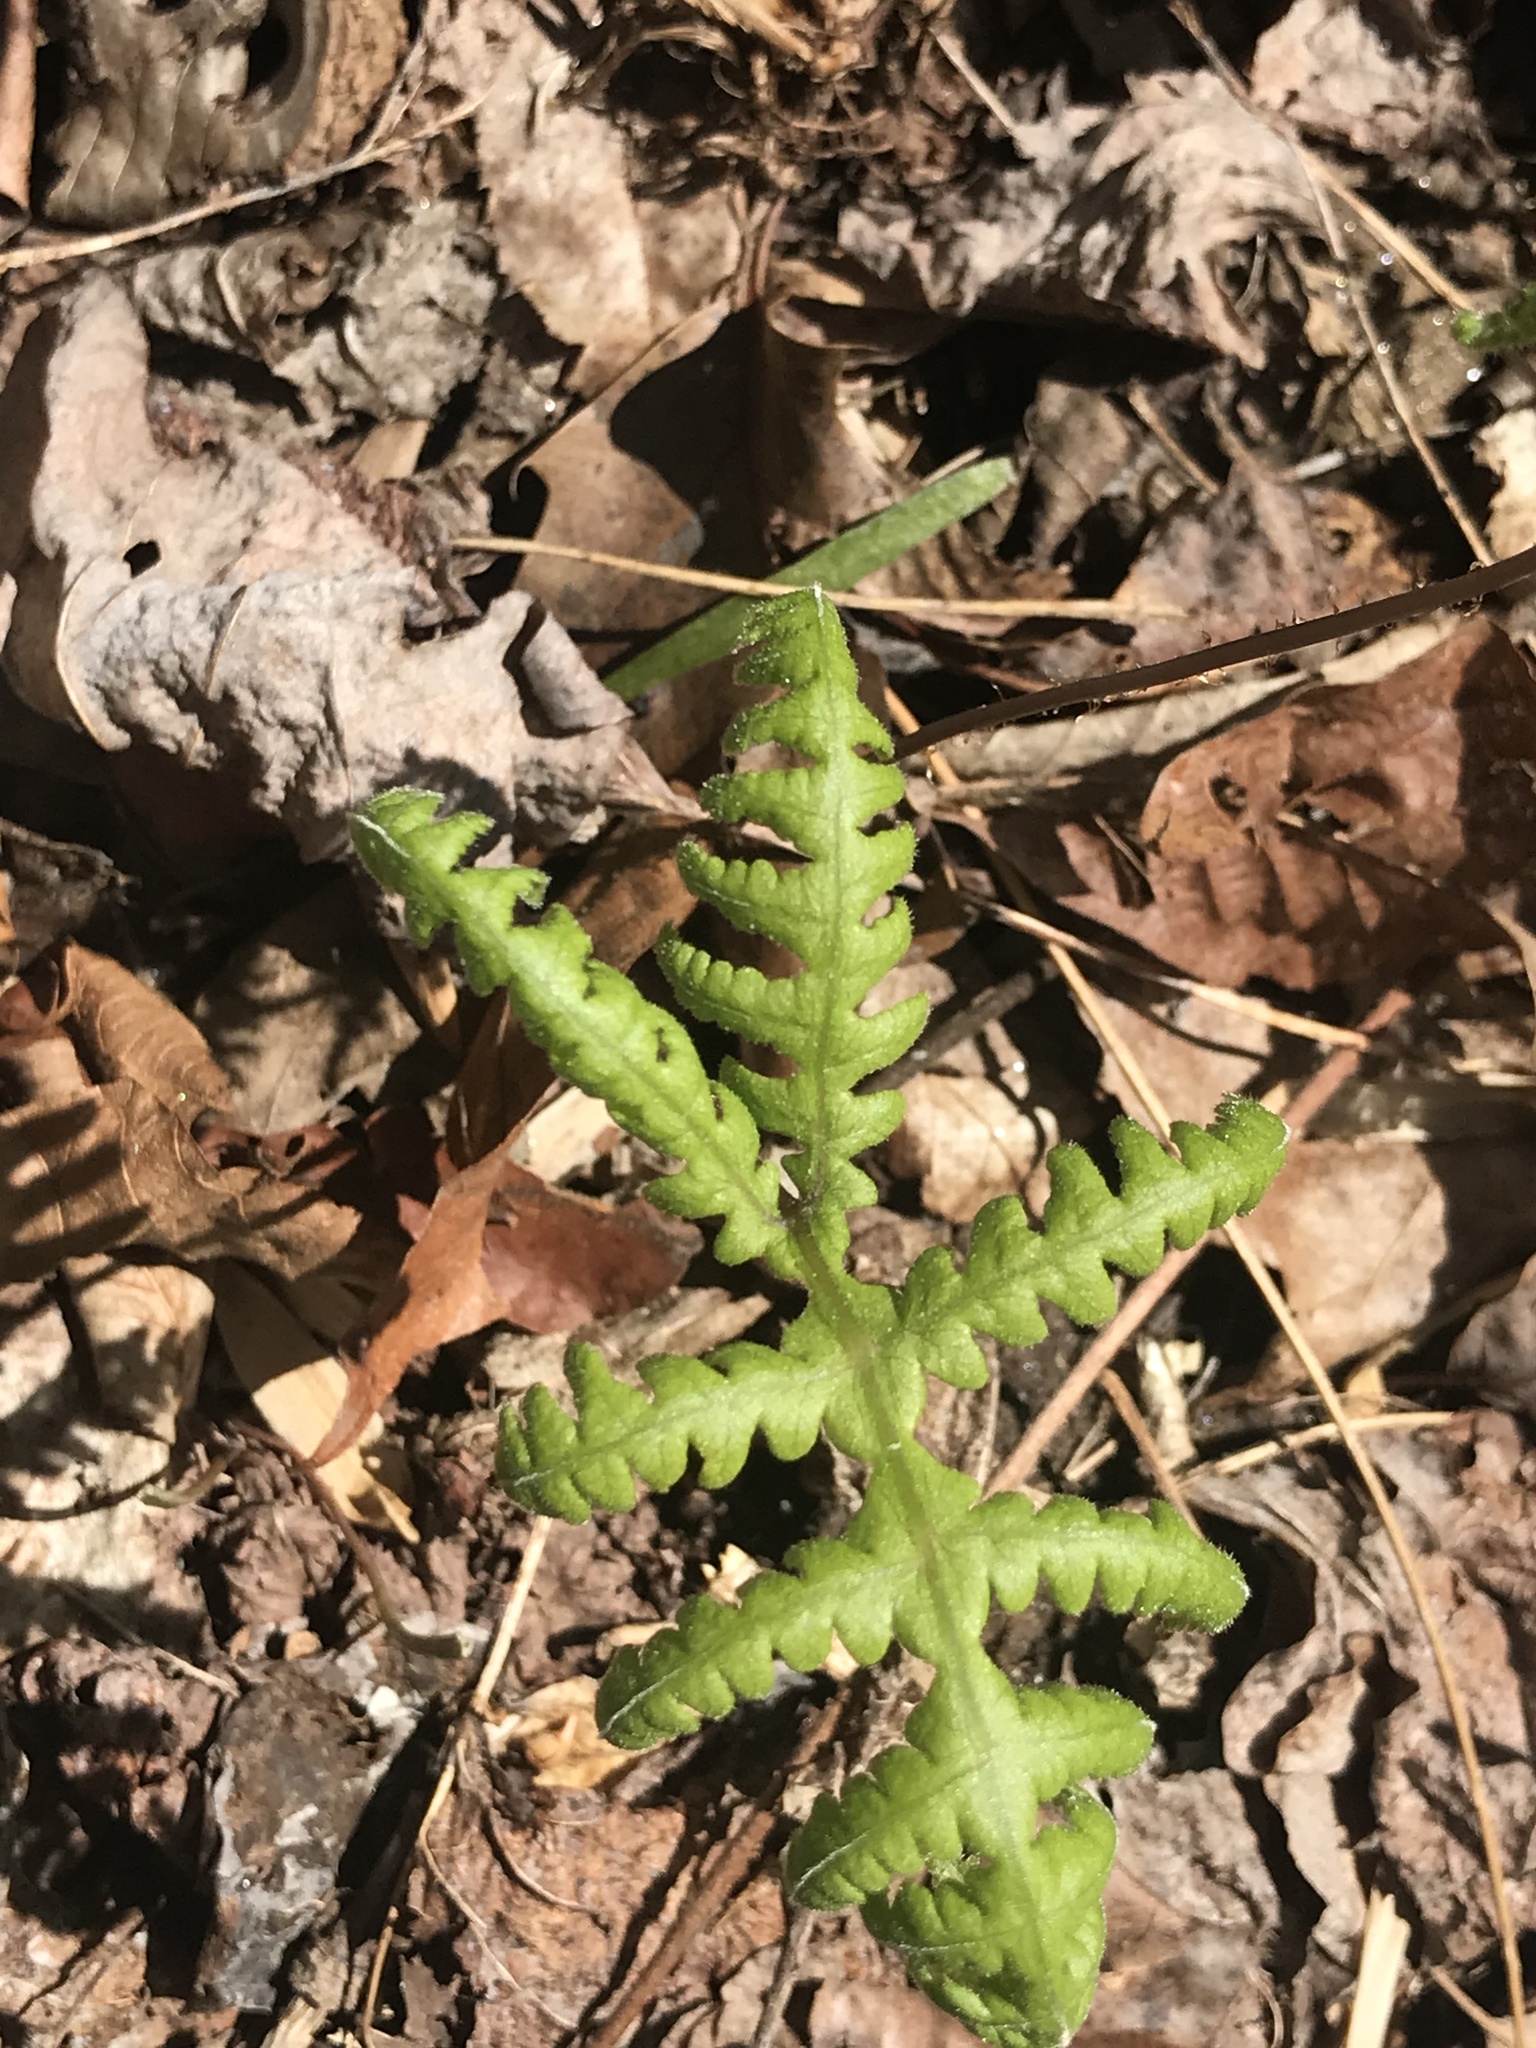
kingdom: Plantae
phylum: Tracheophyta
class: Polypodiopsida
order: Polypodiales
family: Thelypteridaceae
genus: Phegopteris
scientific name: Phegopteris hexagonoptera
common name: Broad beech fern
